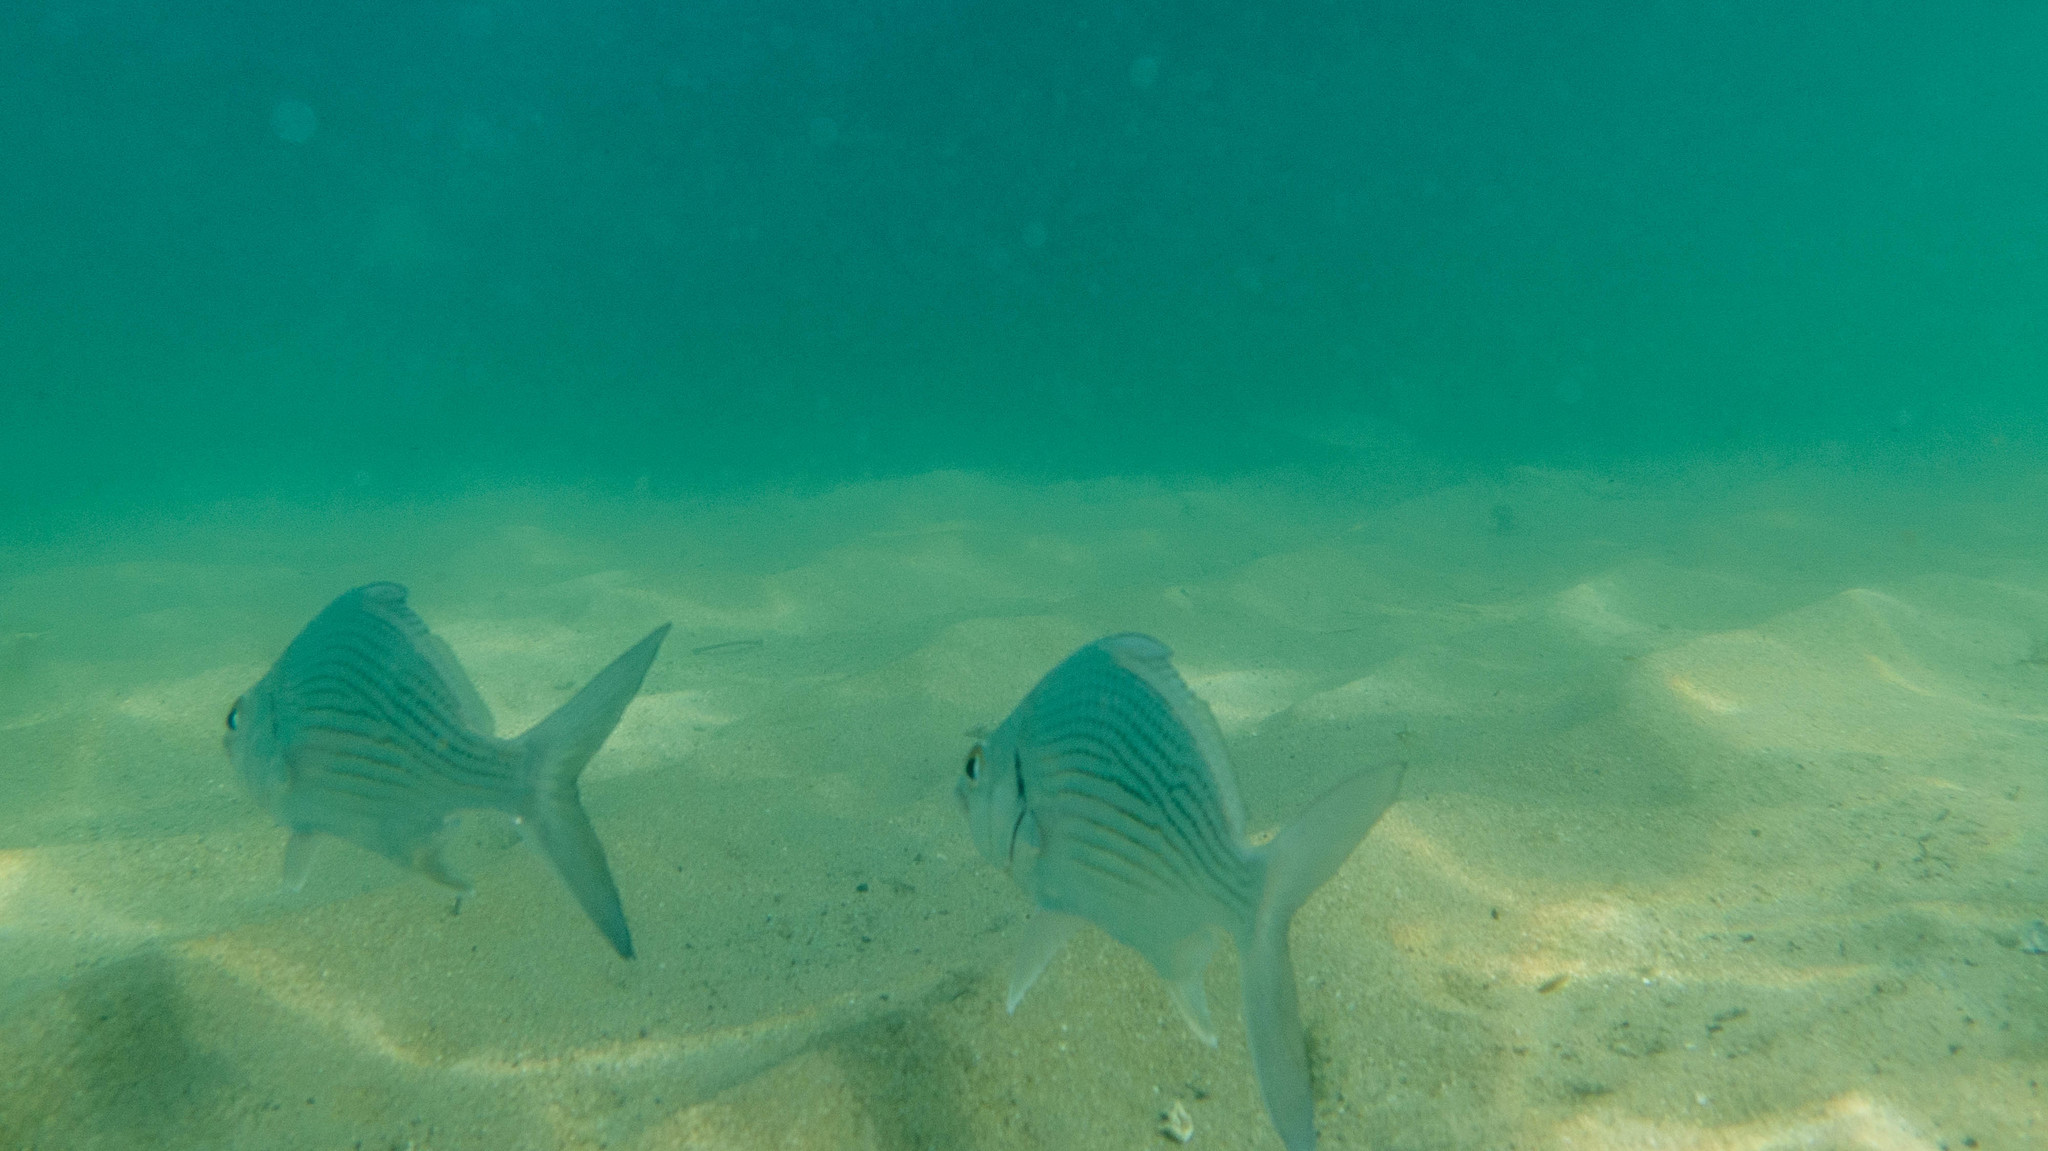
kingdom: Animalia
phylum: Chordata
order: Perciformes
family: Gerreidae
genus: Eugerres
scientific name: Eugerres plumieri
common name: Striped mojarra
